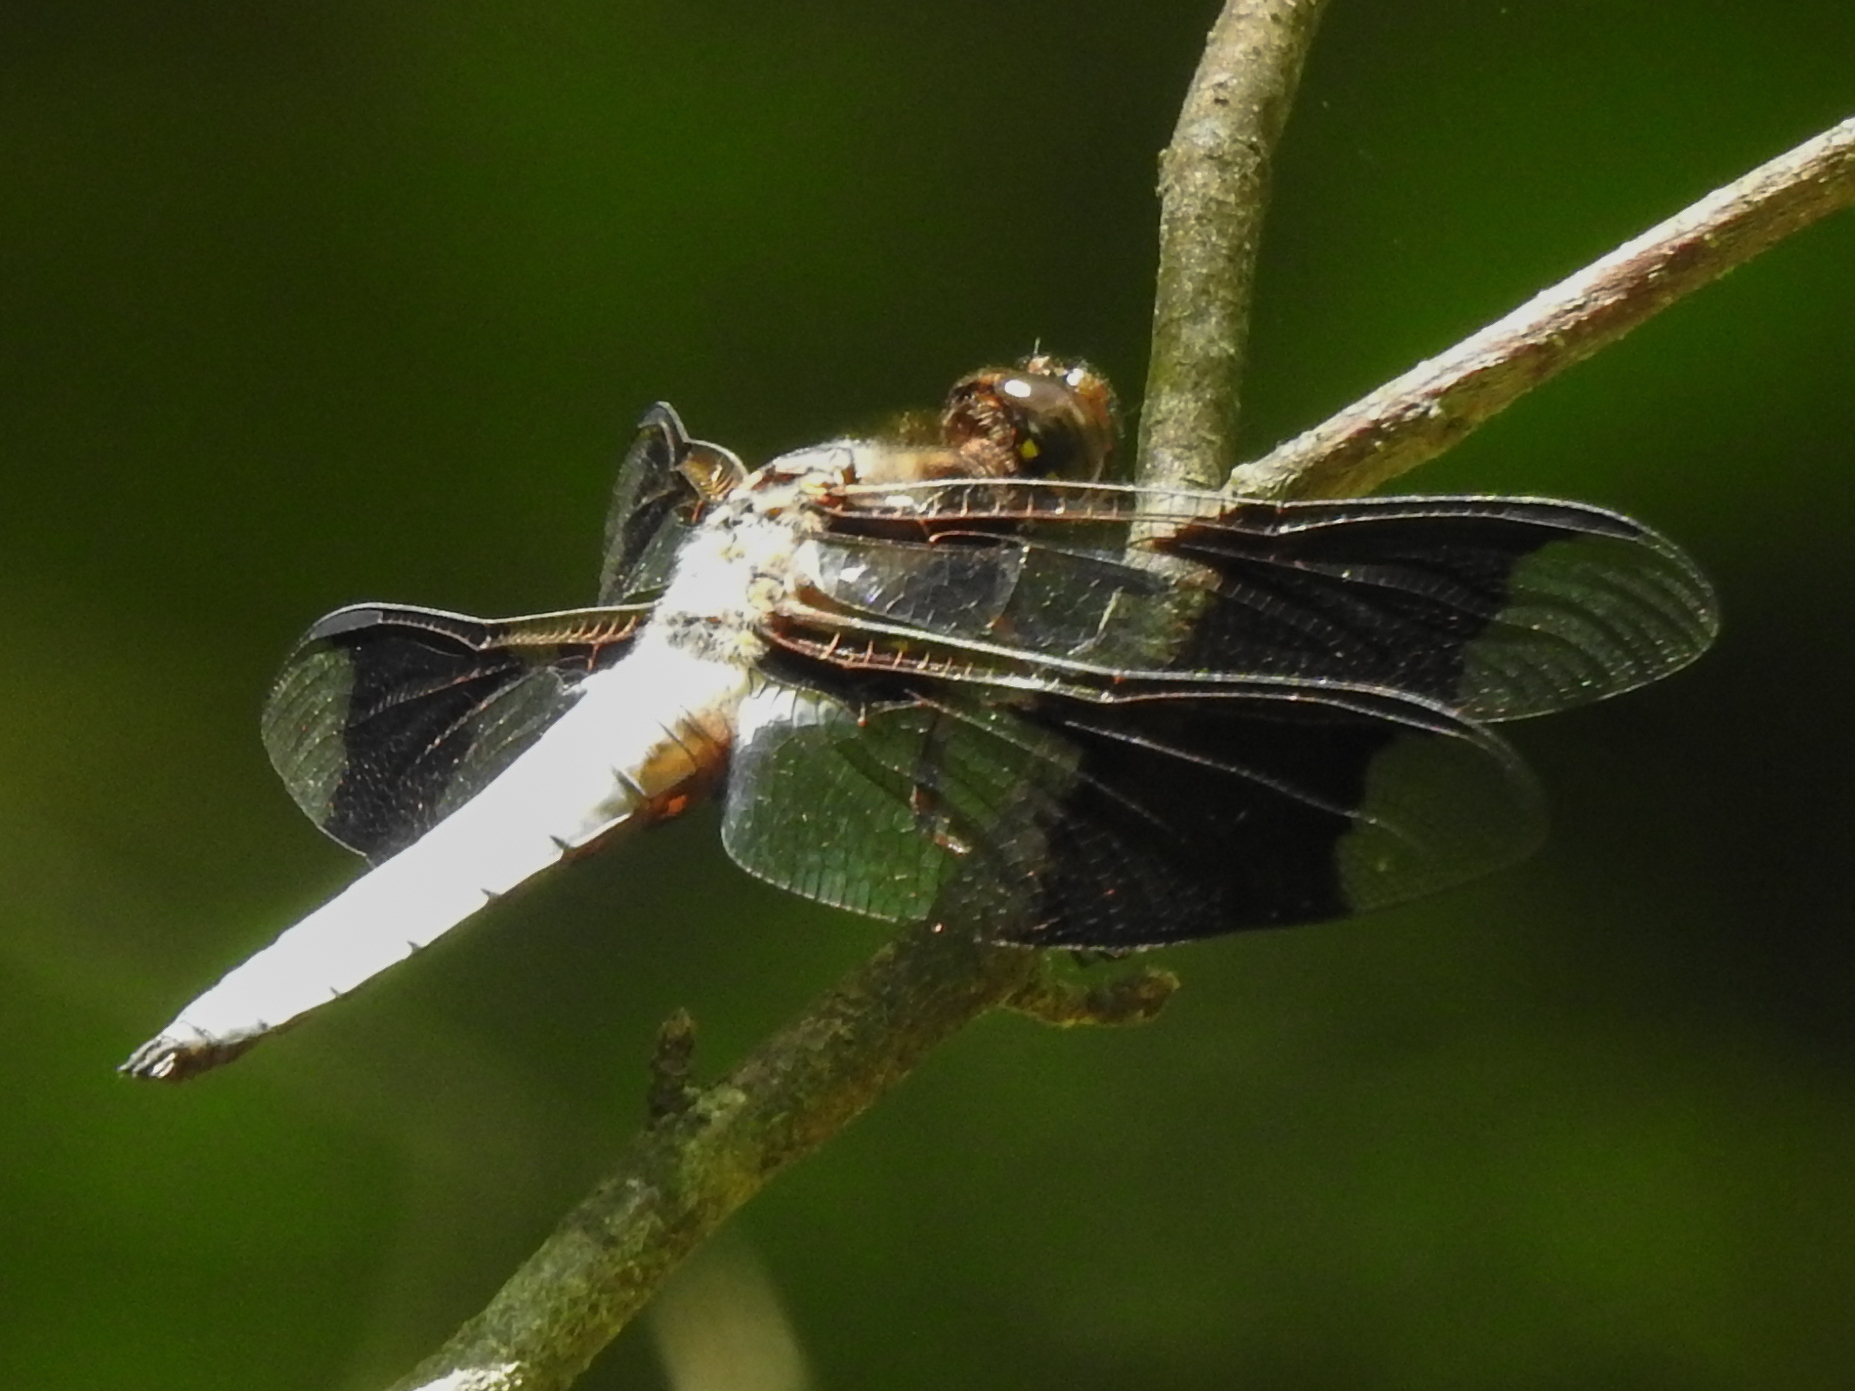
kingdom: Animalia
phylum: Arthropoda
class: Insecta
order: Odonata
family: Libellulidae
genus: Plathemis
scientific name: Plathemis lydia
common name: Common whitetail
